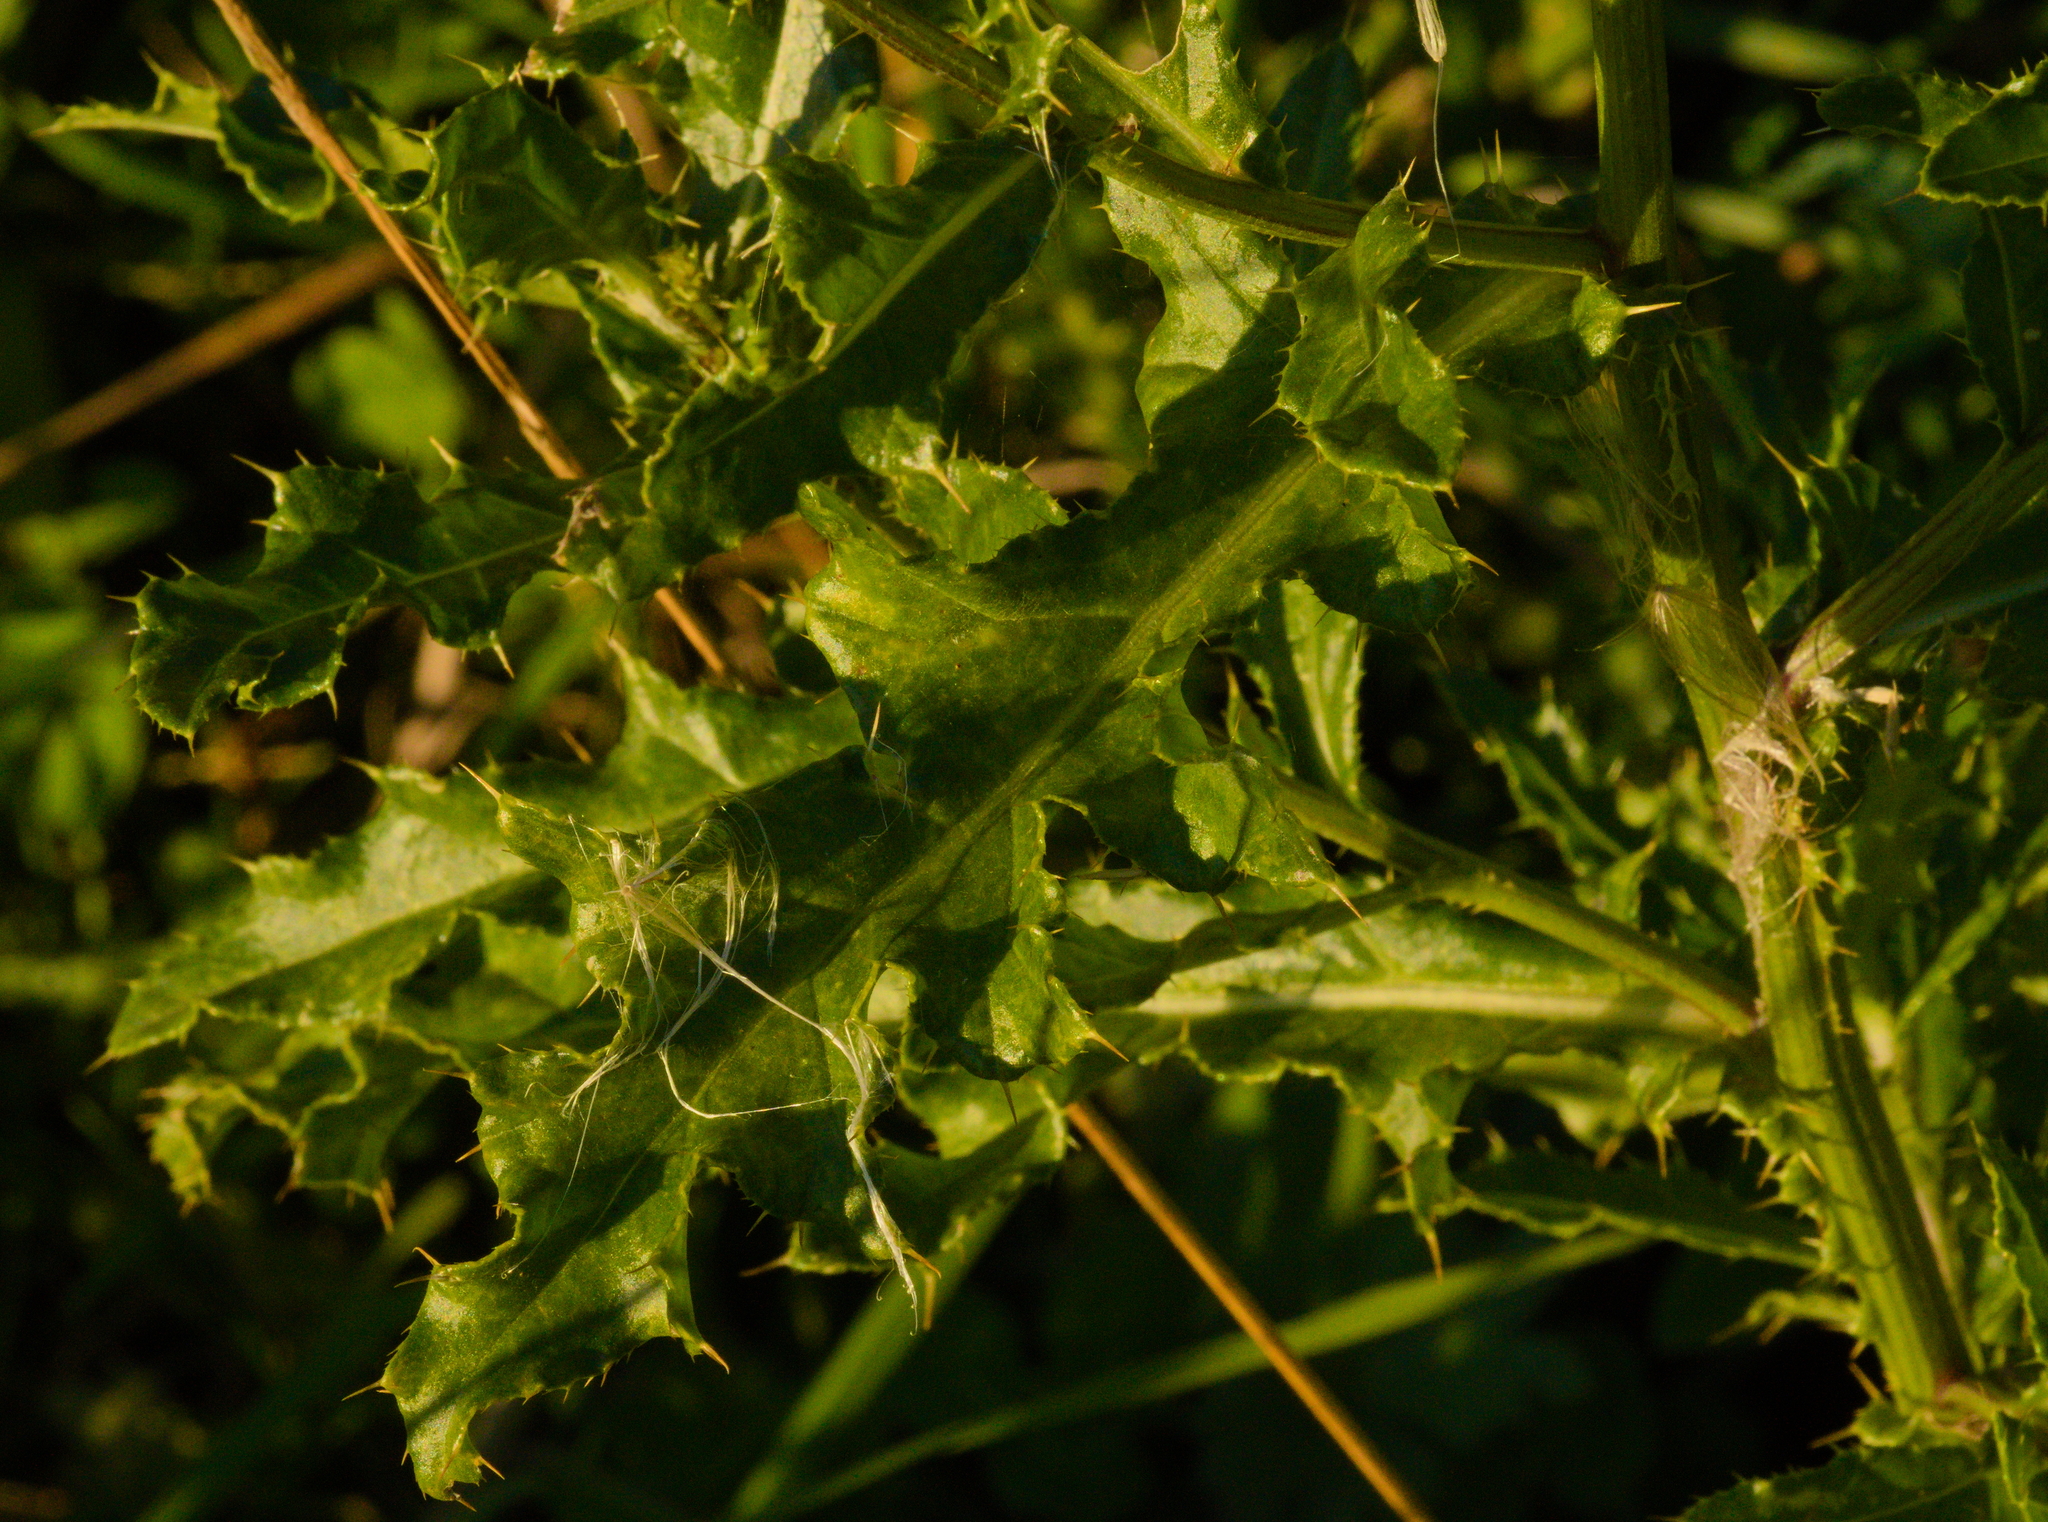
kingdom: Plantae
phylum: Tracheophyta
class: Magnoliopsida
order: Asterales
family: Asteraceae
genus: Cirsium
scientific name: Cirsium arvense
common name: Creeping thistle
